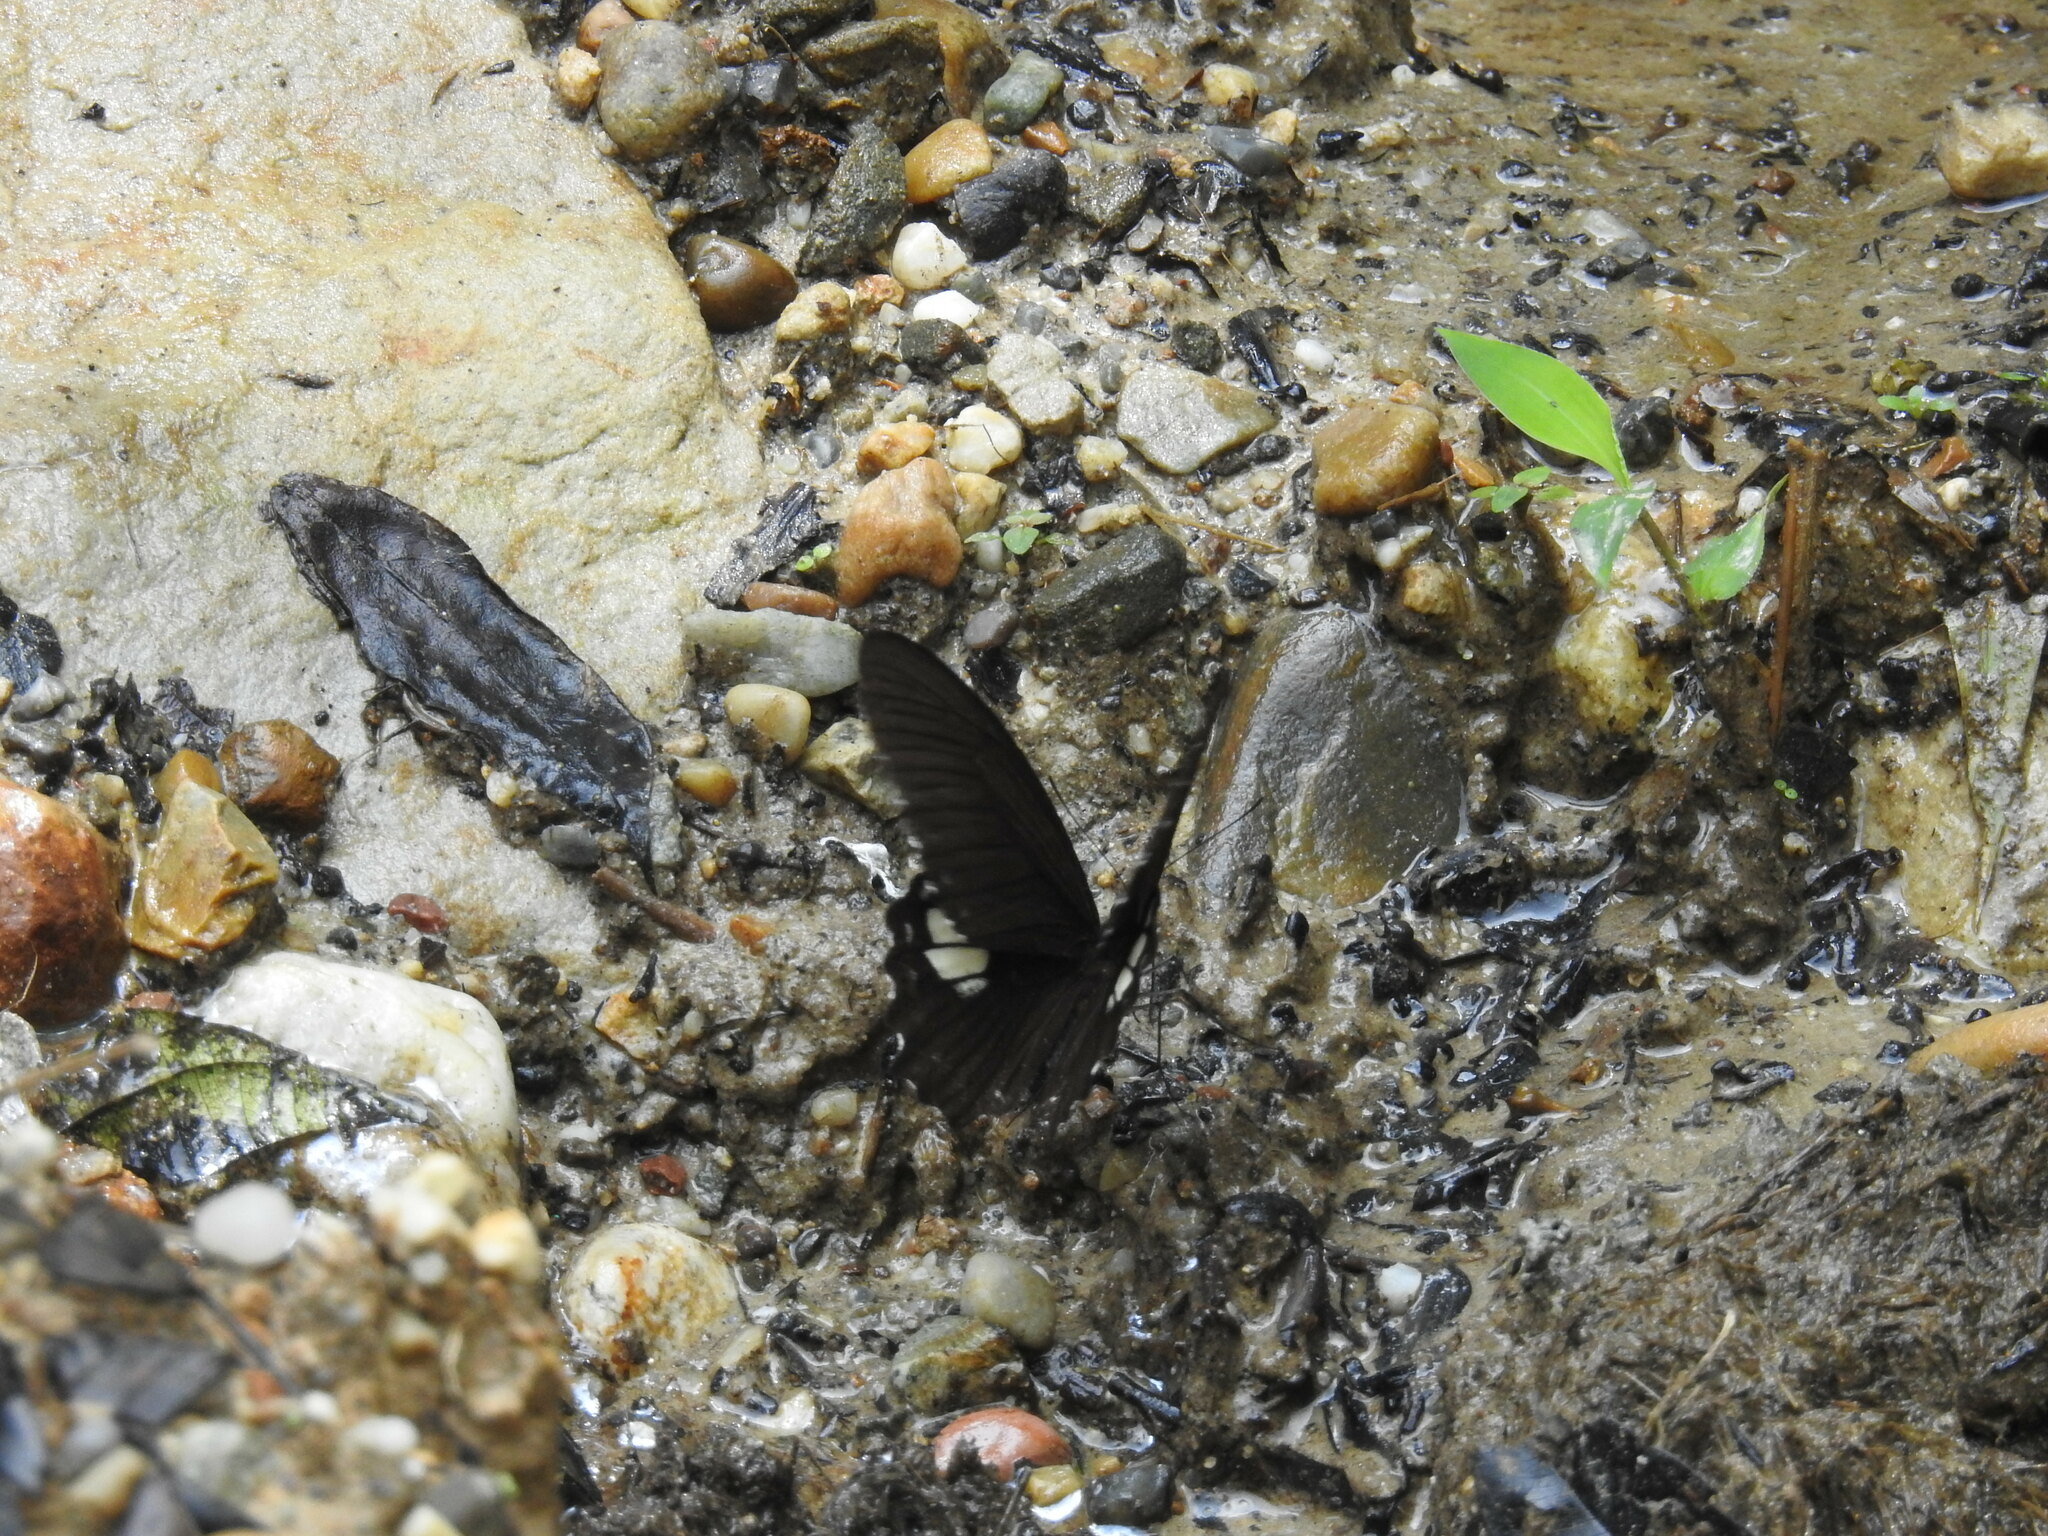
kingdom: Animalia
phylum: Arthropoda
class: Insecta
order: Lepidoptera
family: Papilionidae
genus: Papilio
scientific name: Papilio castor
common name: Common raven
